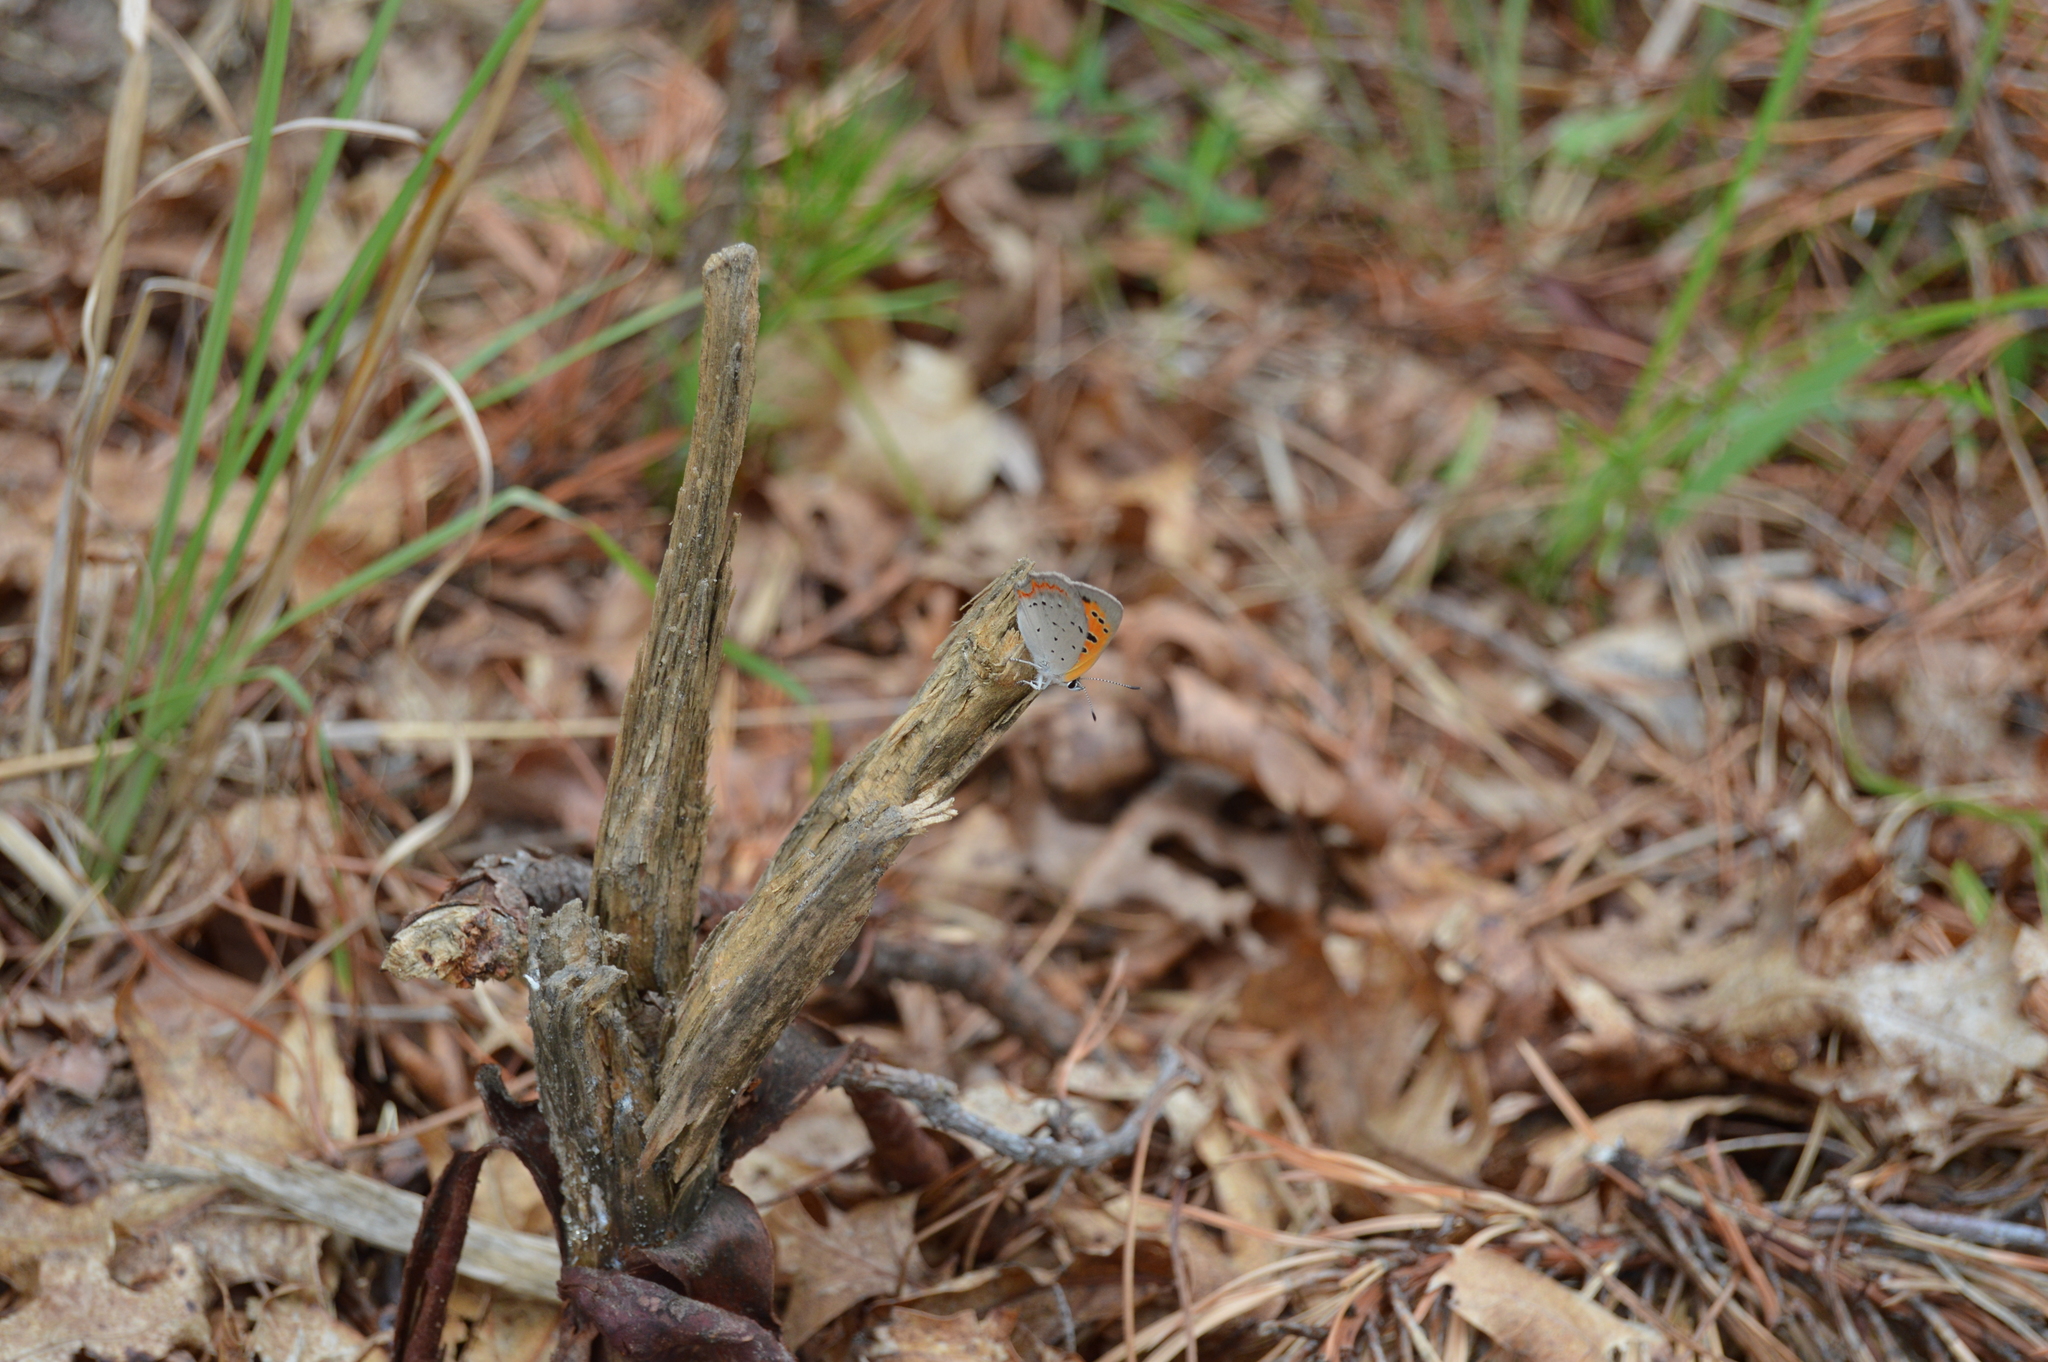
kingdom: Animalia
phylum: Arthropoda
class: Insecta
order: Lepidoptera
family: Lycaenidae
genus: Lycaena
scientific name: Lycaena hypophlaeas
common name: American copper
